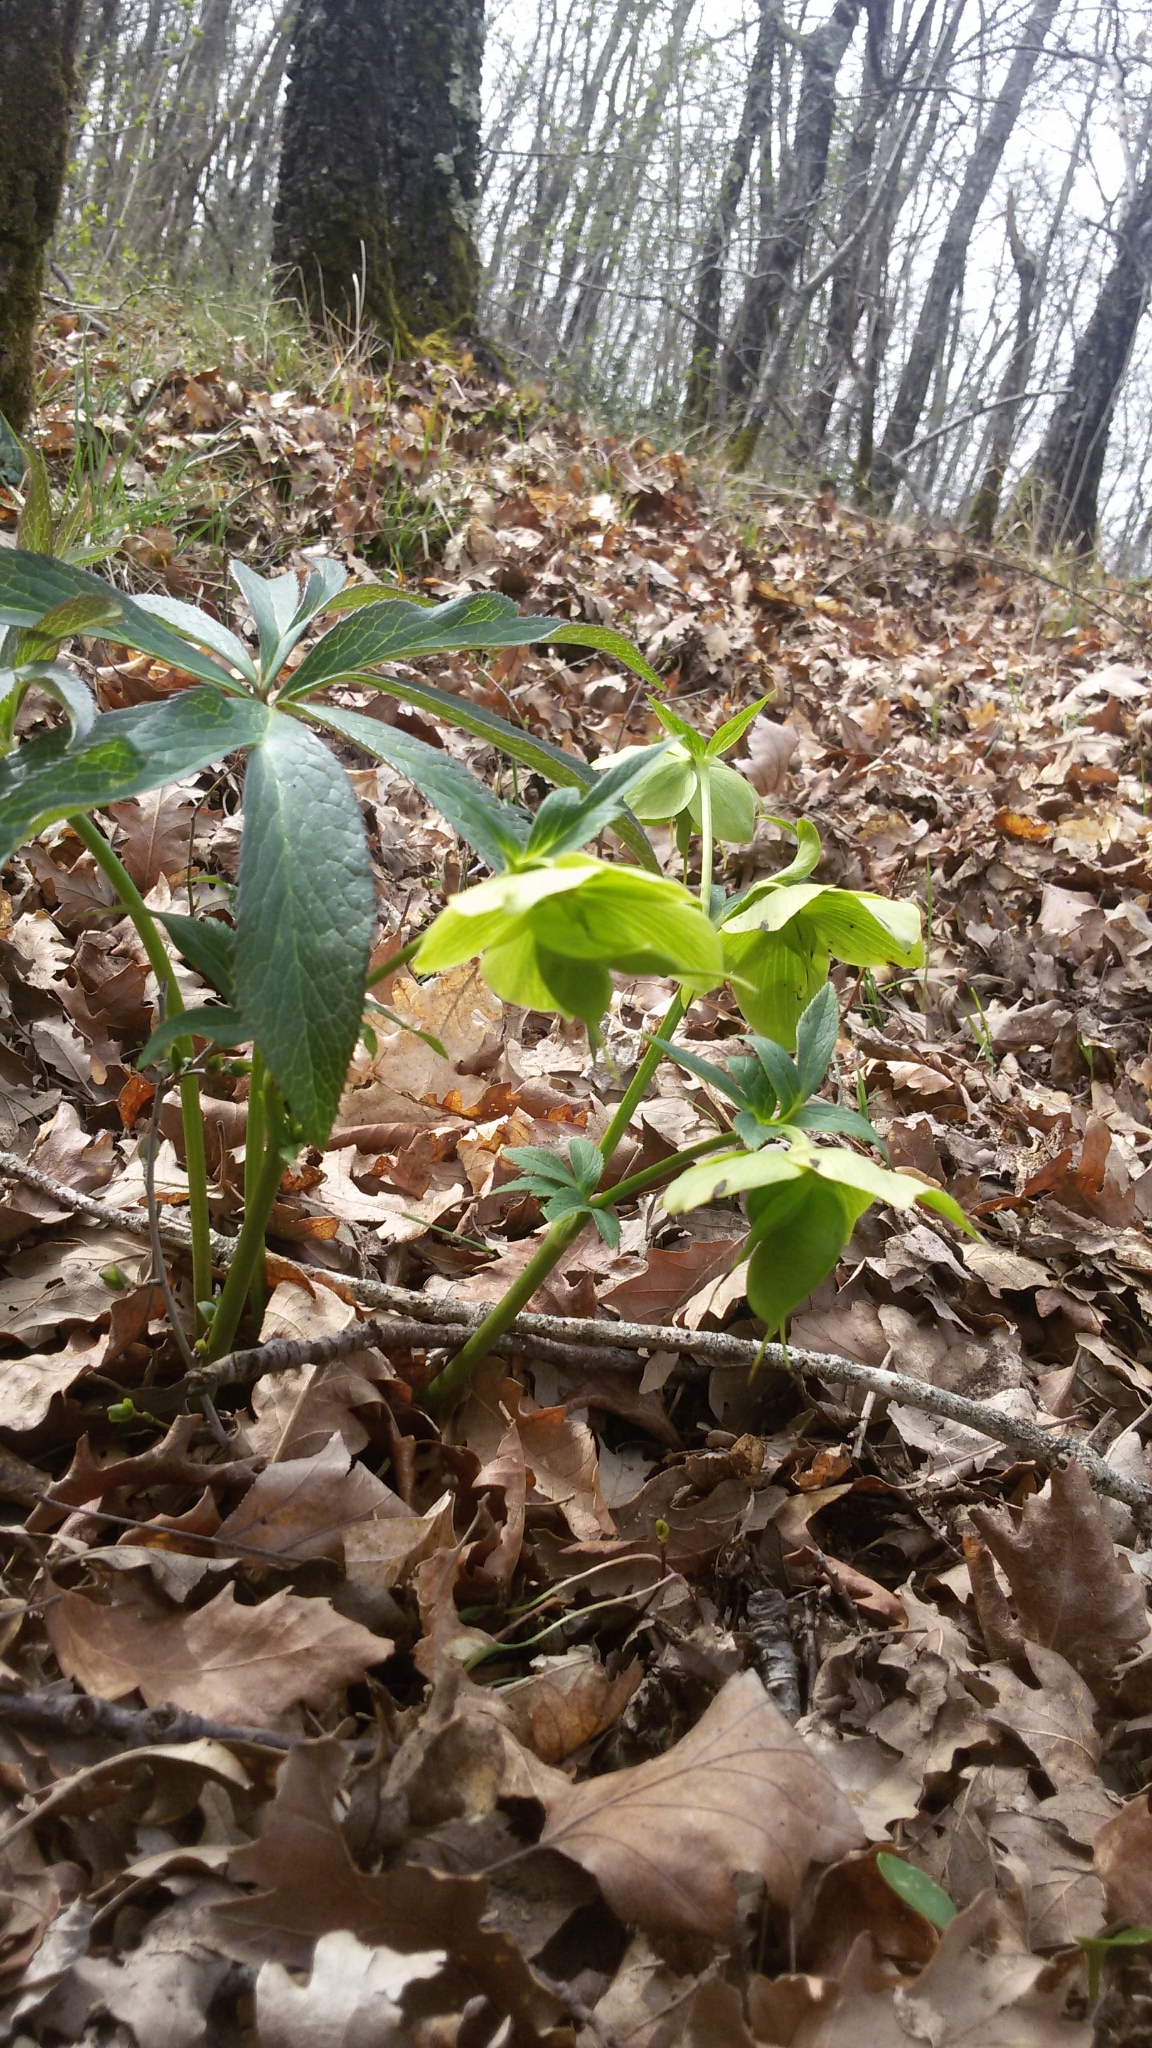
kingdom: Plantae
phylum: Tracheophyta
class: Magnoliopsida
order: Ranunculales
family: Ranunculaceae
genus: Helleborus
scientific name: Helleborus bocconei
